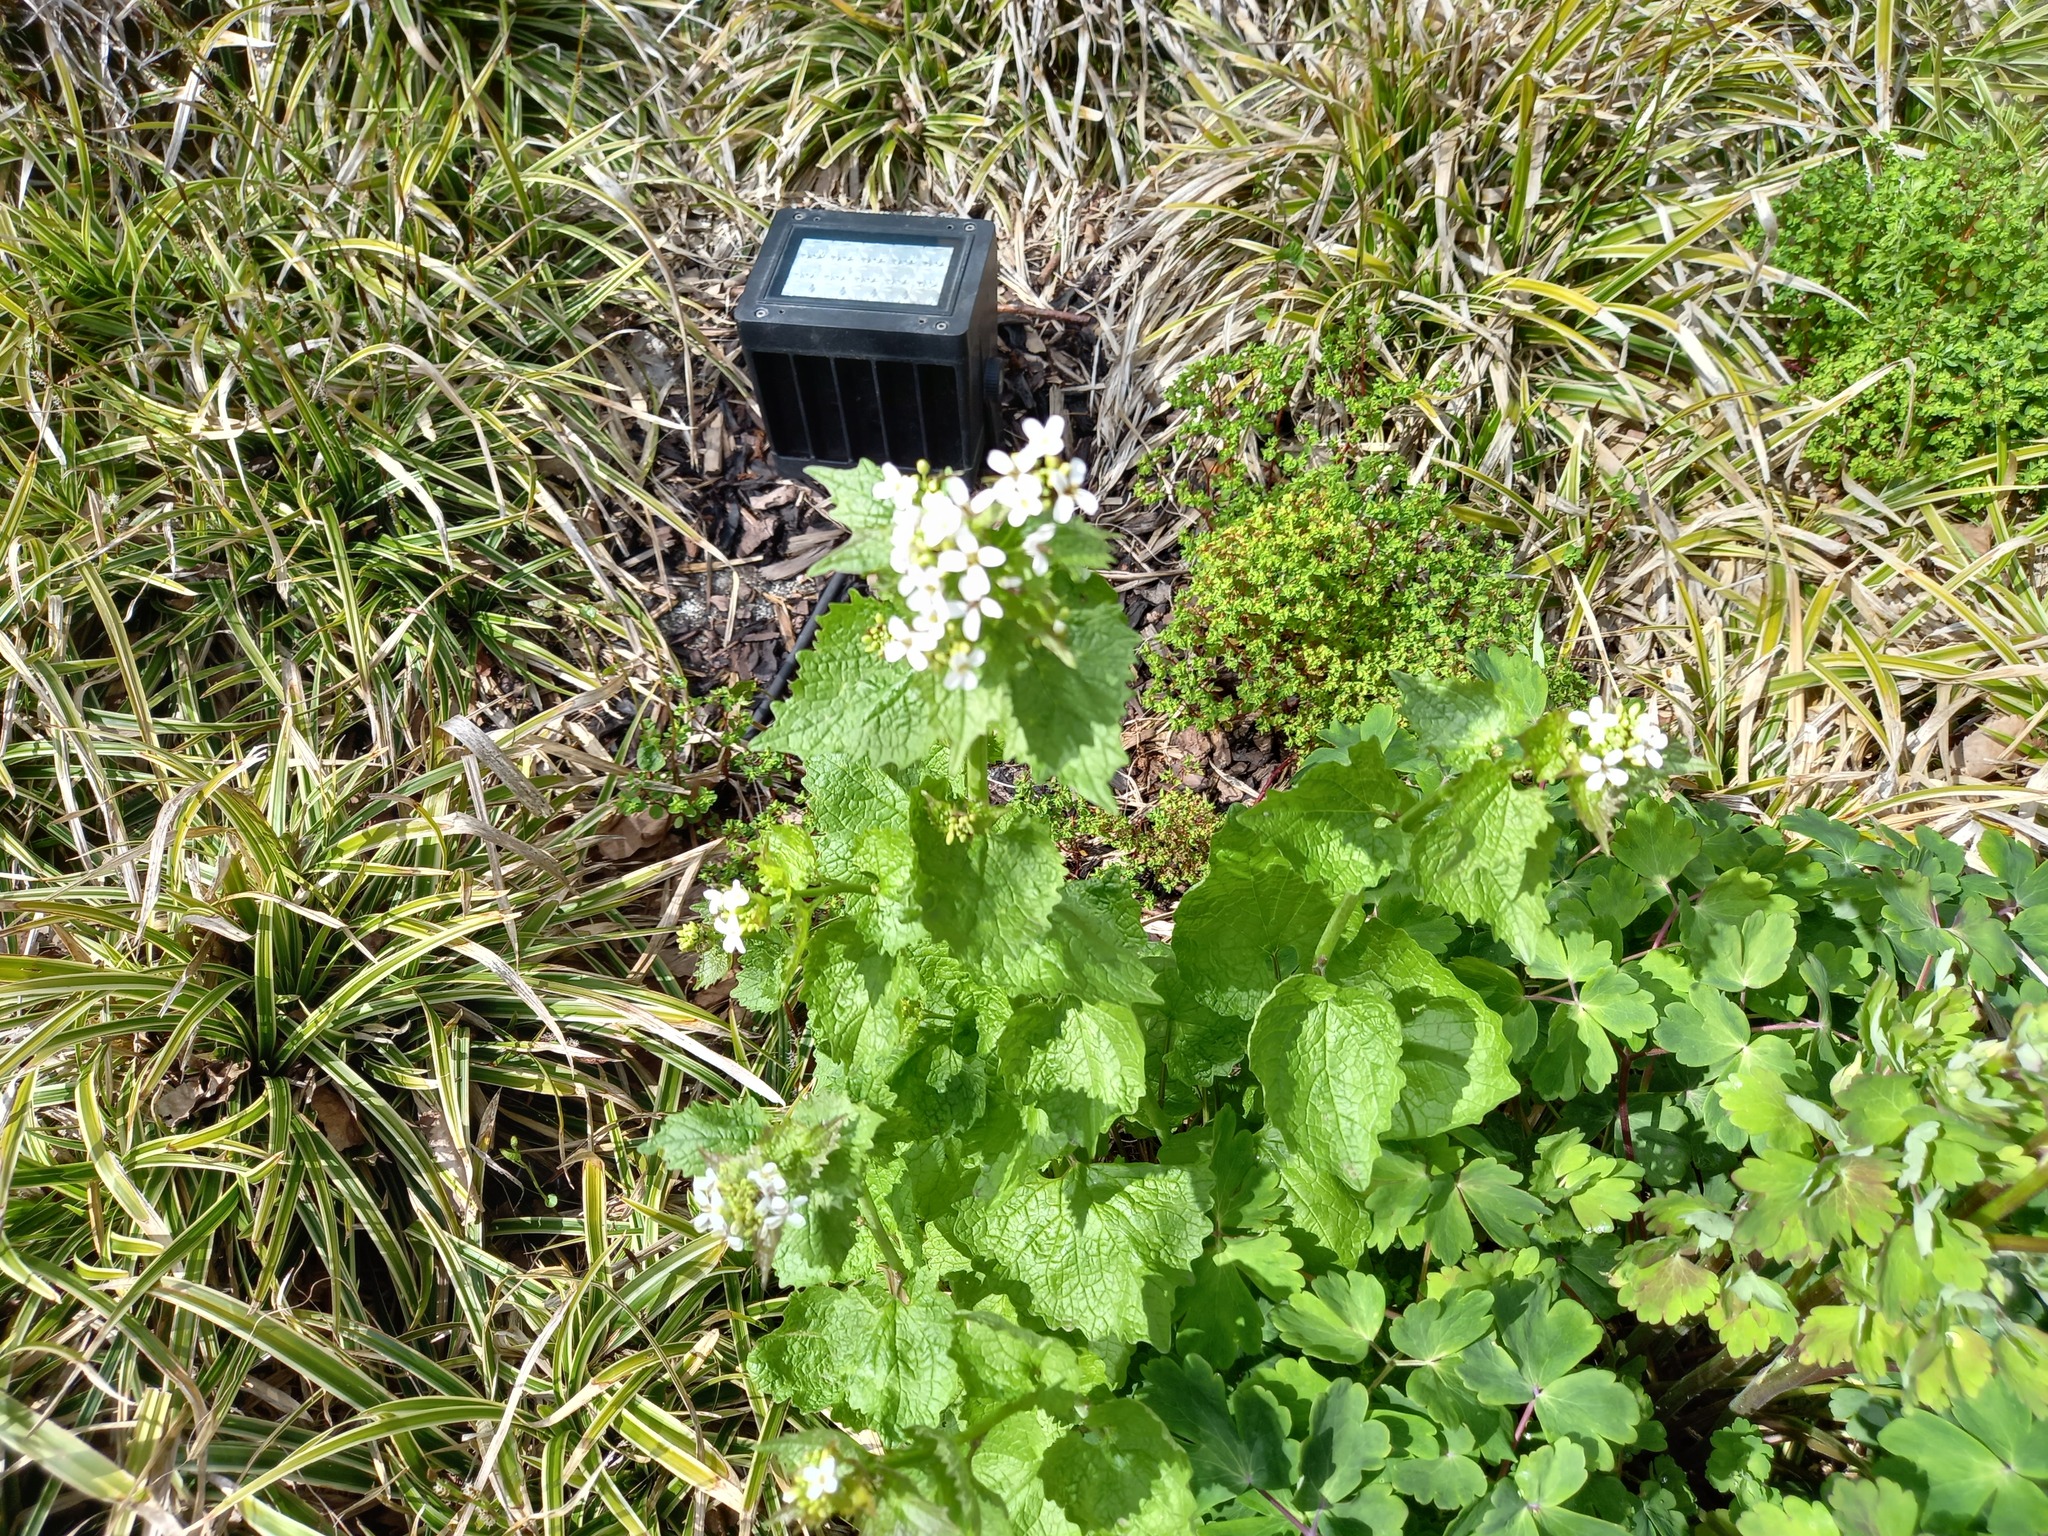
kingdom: Plantae
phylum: Tracheophyta
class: Magnoliopsida
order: Brassicales
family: Brassicaceae
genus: Alliaria
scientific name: Alliaria petiolata
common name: Garlic mustard
